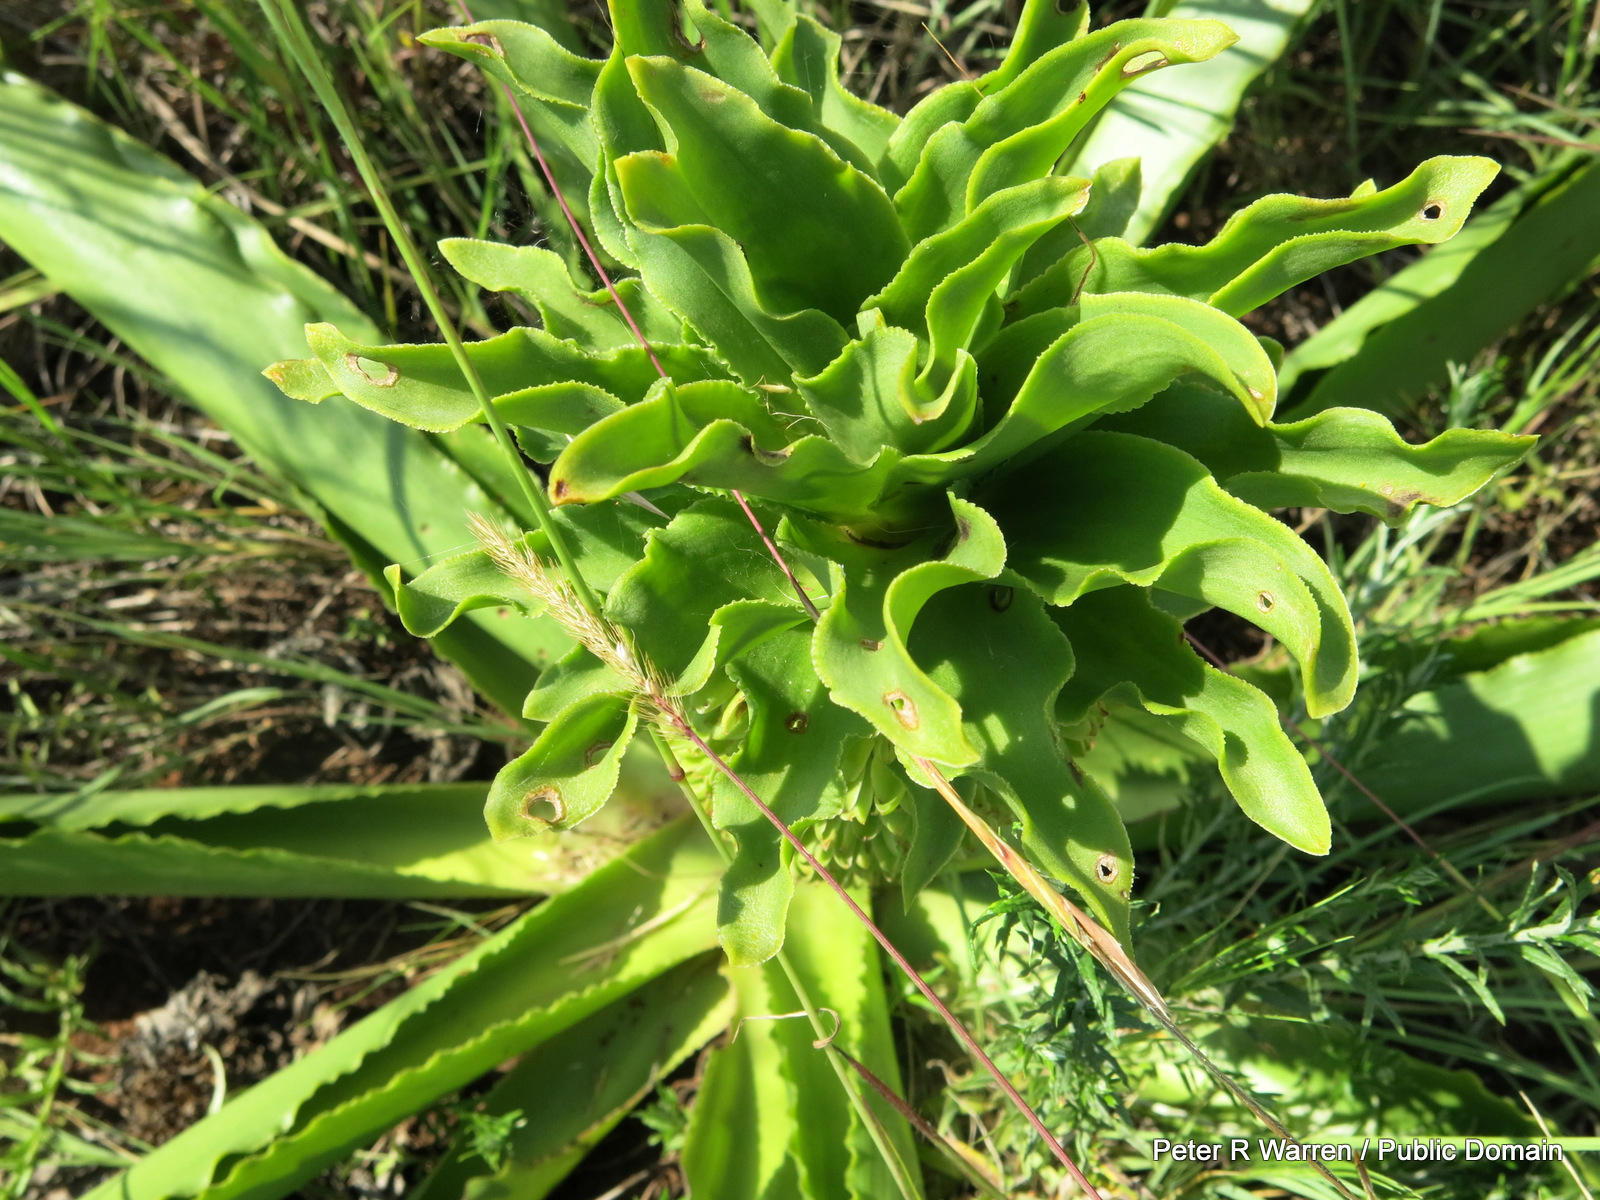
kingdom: Plantae
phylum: Tracheophyta
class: Liliopsida
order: Asparagales
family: Asparagaceae
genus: Eucomis
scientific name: Eucomis autumnalis
